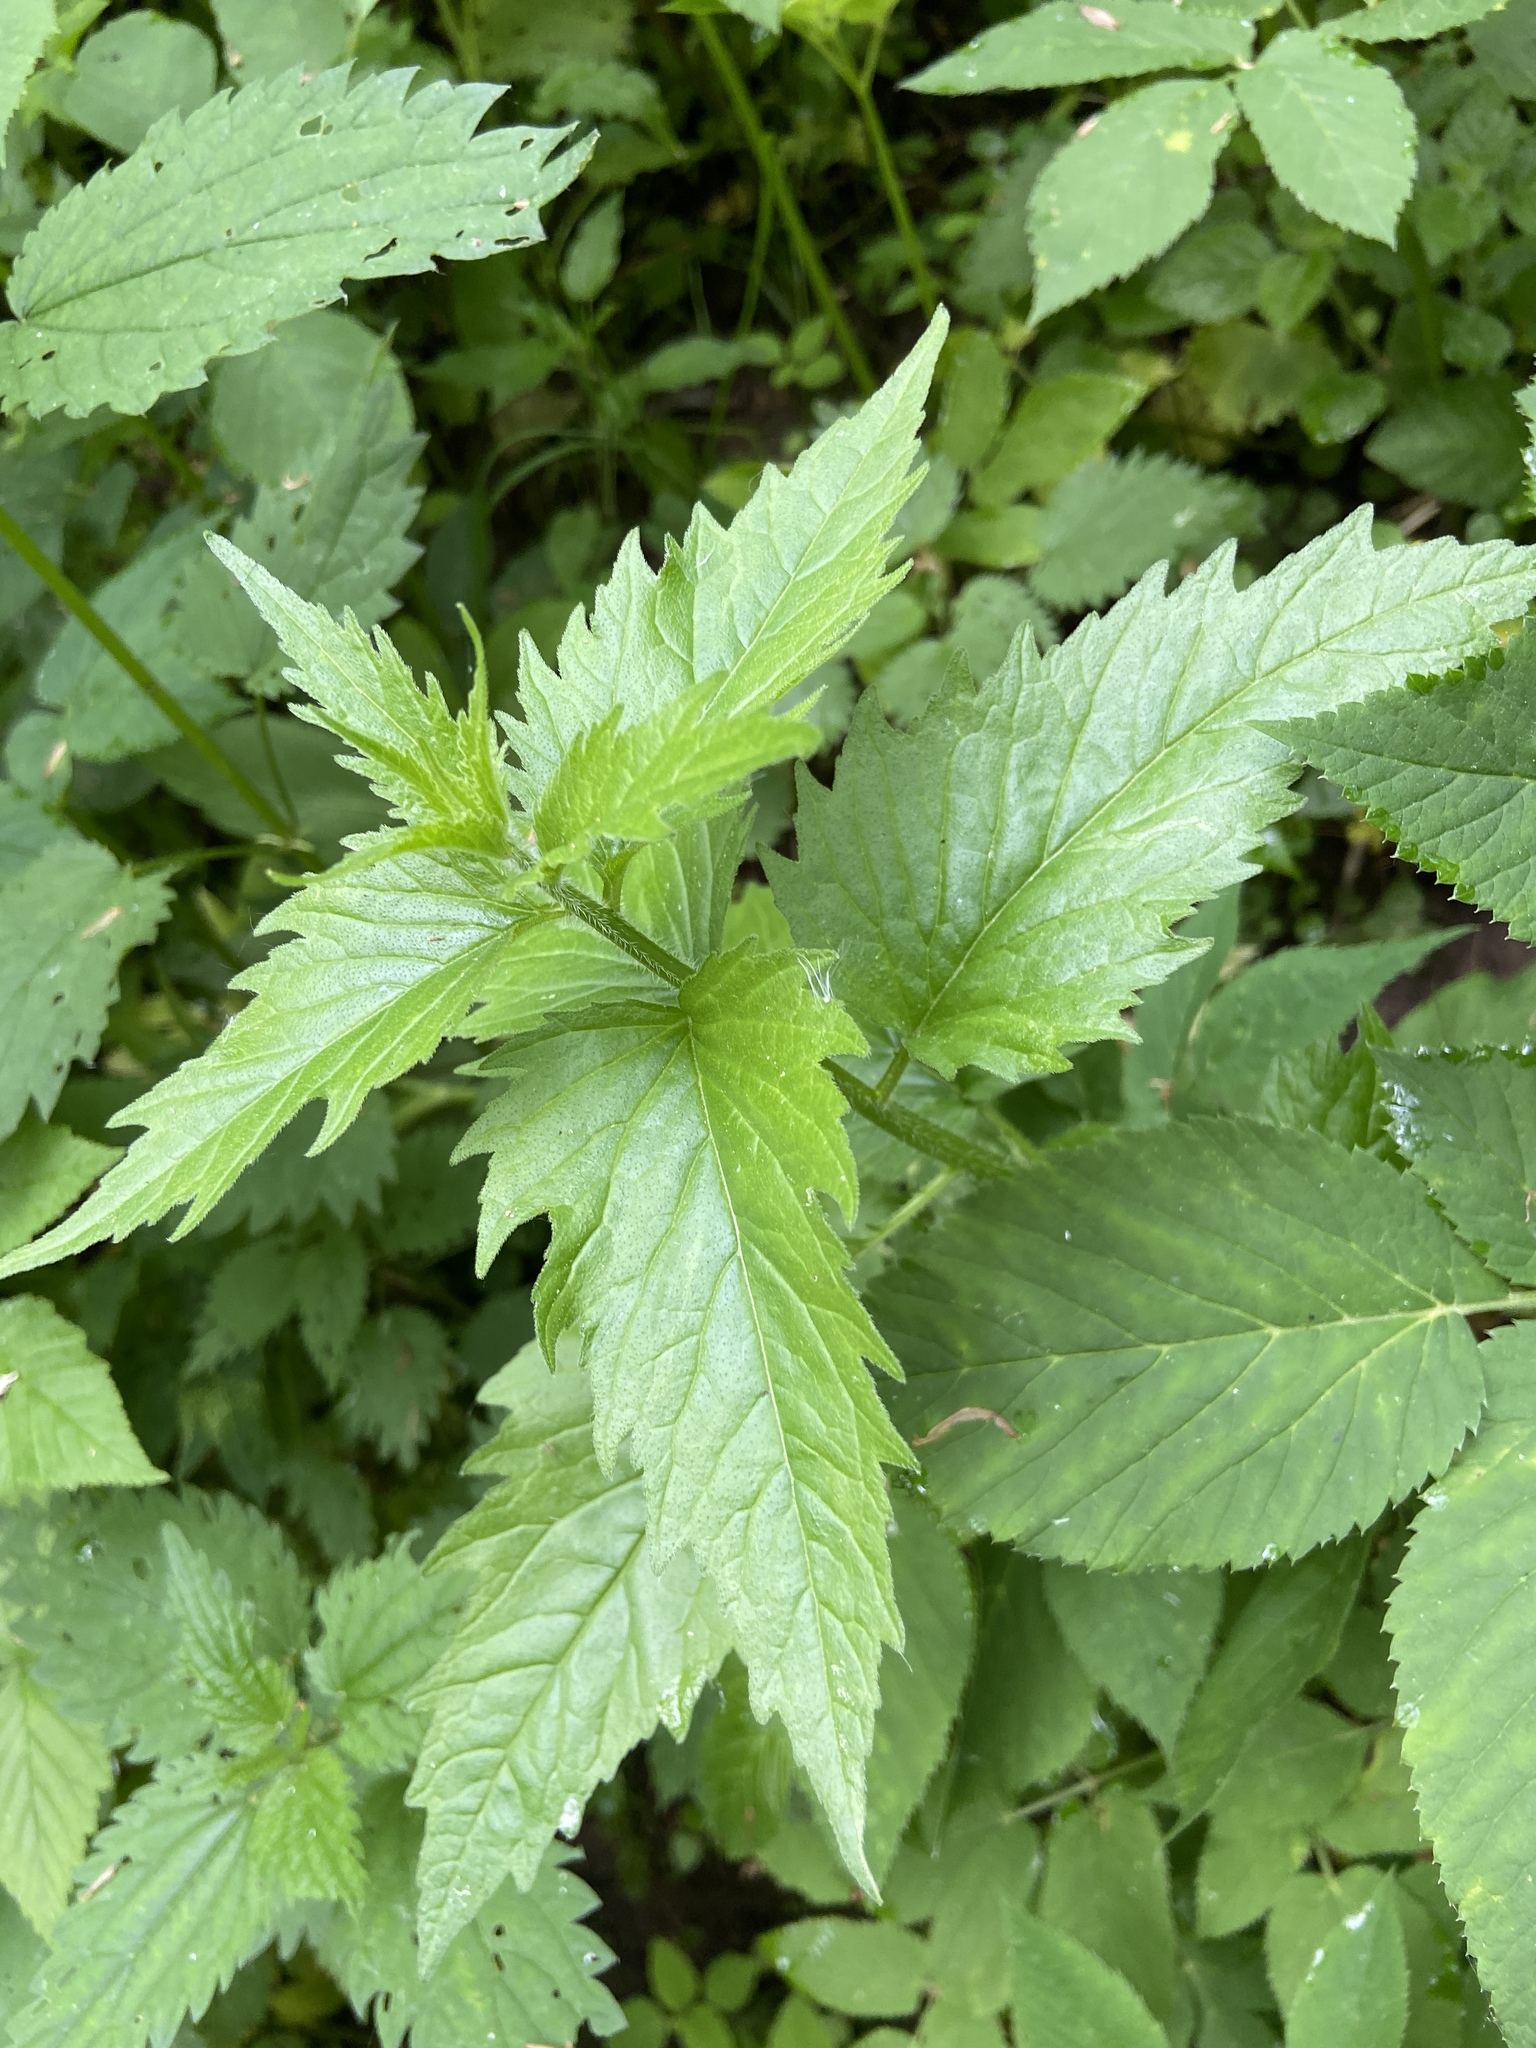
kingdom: Plantae
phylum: Tracheophyta
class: Magnoliopsida
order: Asterales
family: Campanulaceae
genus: Campanula
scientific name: Campanula trachelium
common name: Nettle-leaved bellflower
